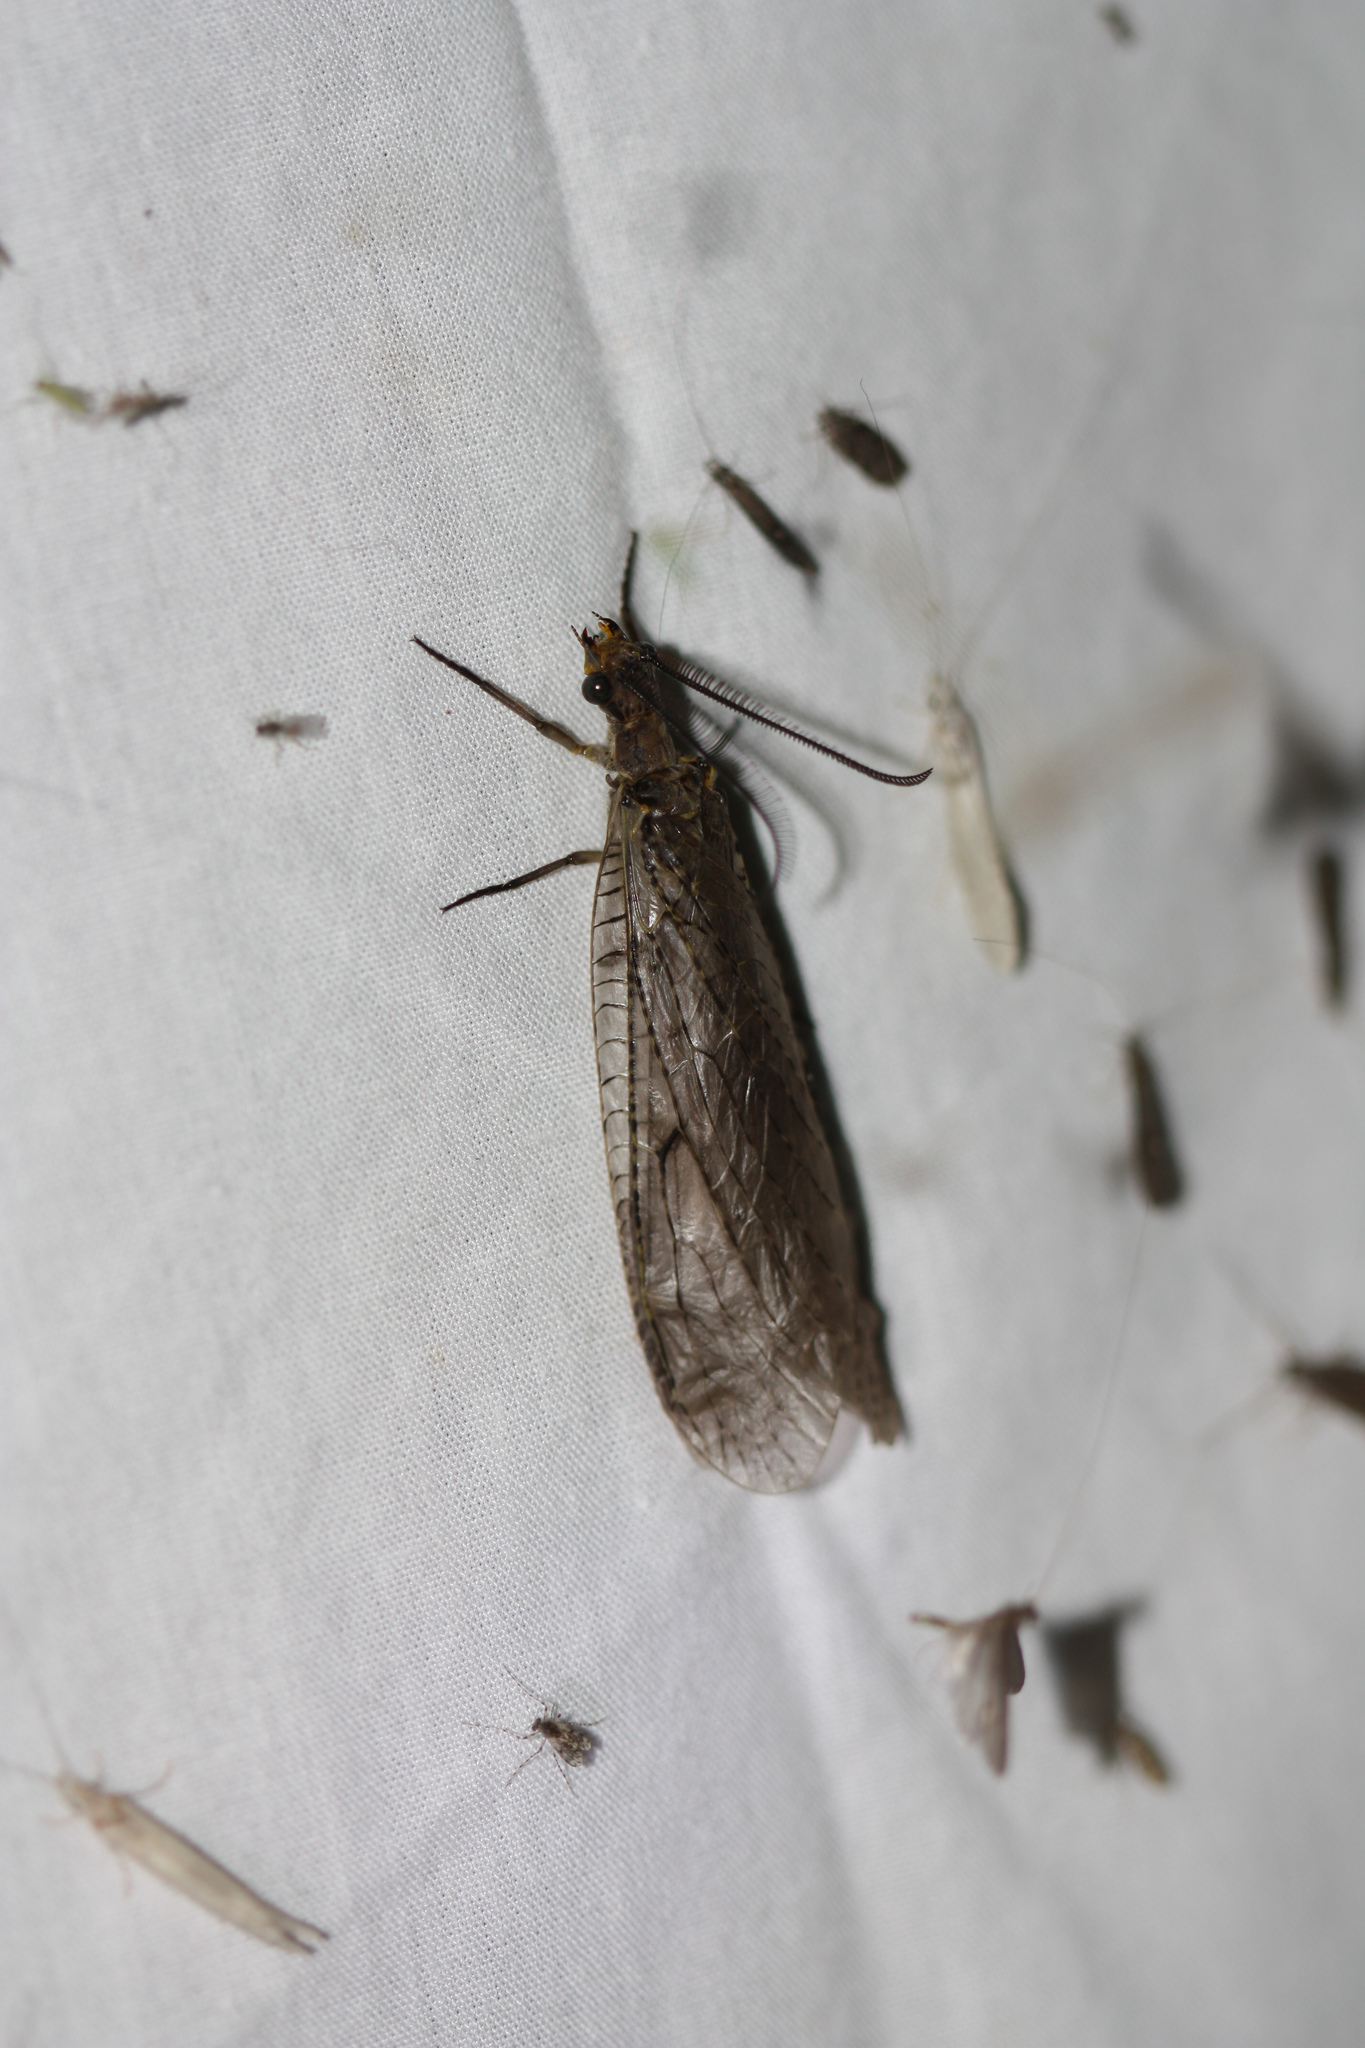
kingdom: Animalia
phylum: Arthropoda
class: Insecta
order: Megaloptera
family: Corydalidae
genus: Chauliodes
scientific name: Chauliodes rastricornis
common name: Spring fishfly
